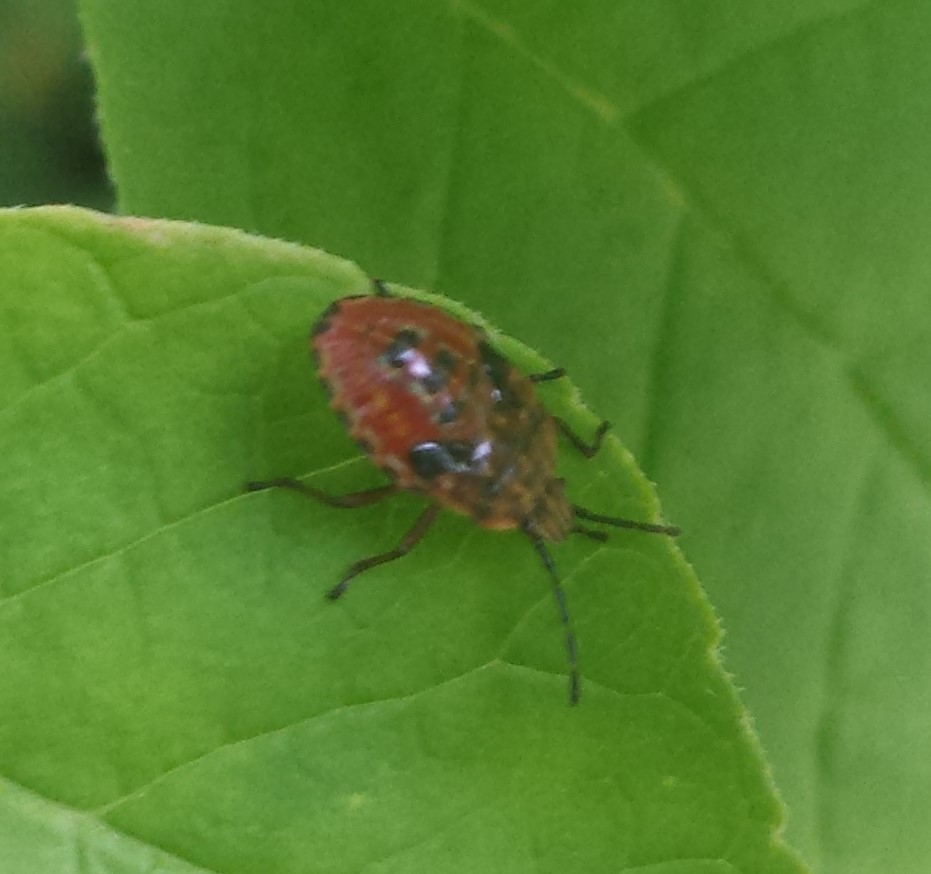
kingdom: Animalia
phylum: Arthropoda
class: Insecta
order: Hemiptera
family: Acanthosomatidae
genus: Elasmucha
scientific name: Elasmucha lateralis
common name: Shield bug
